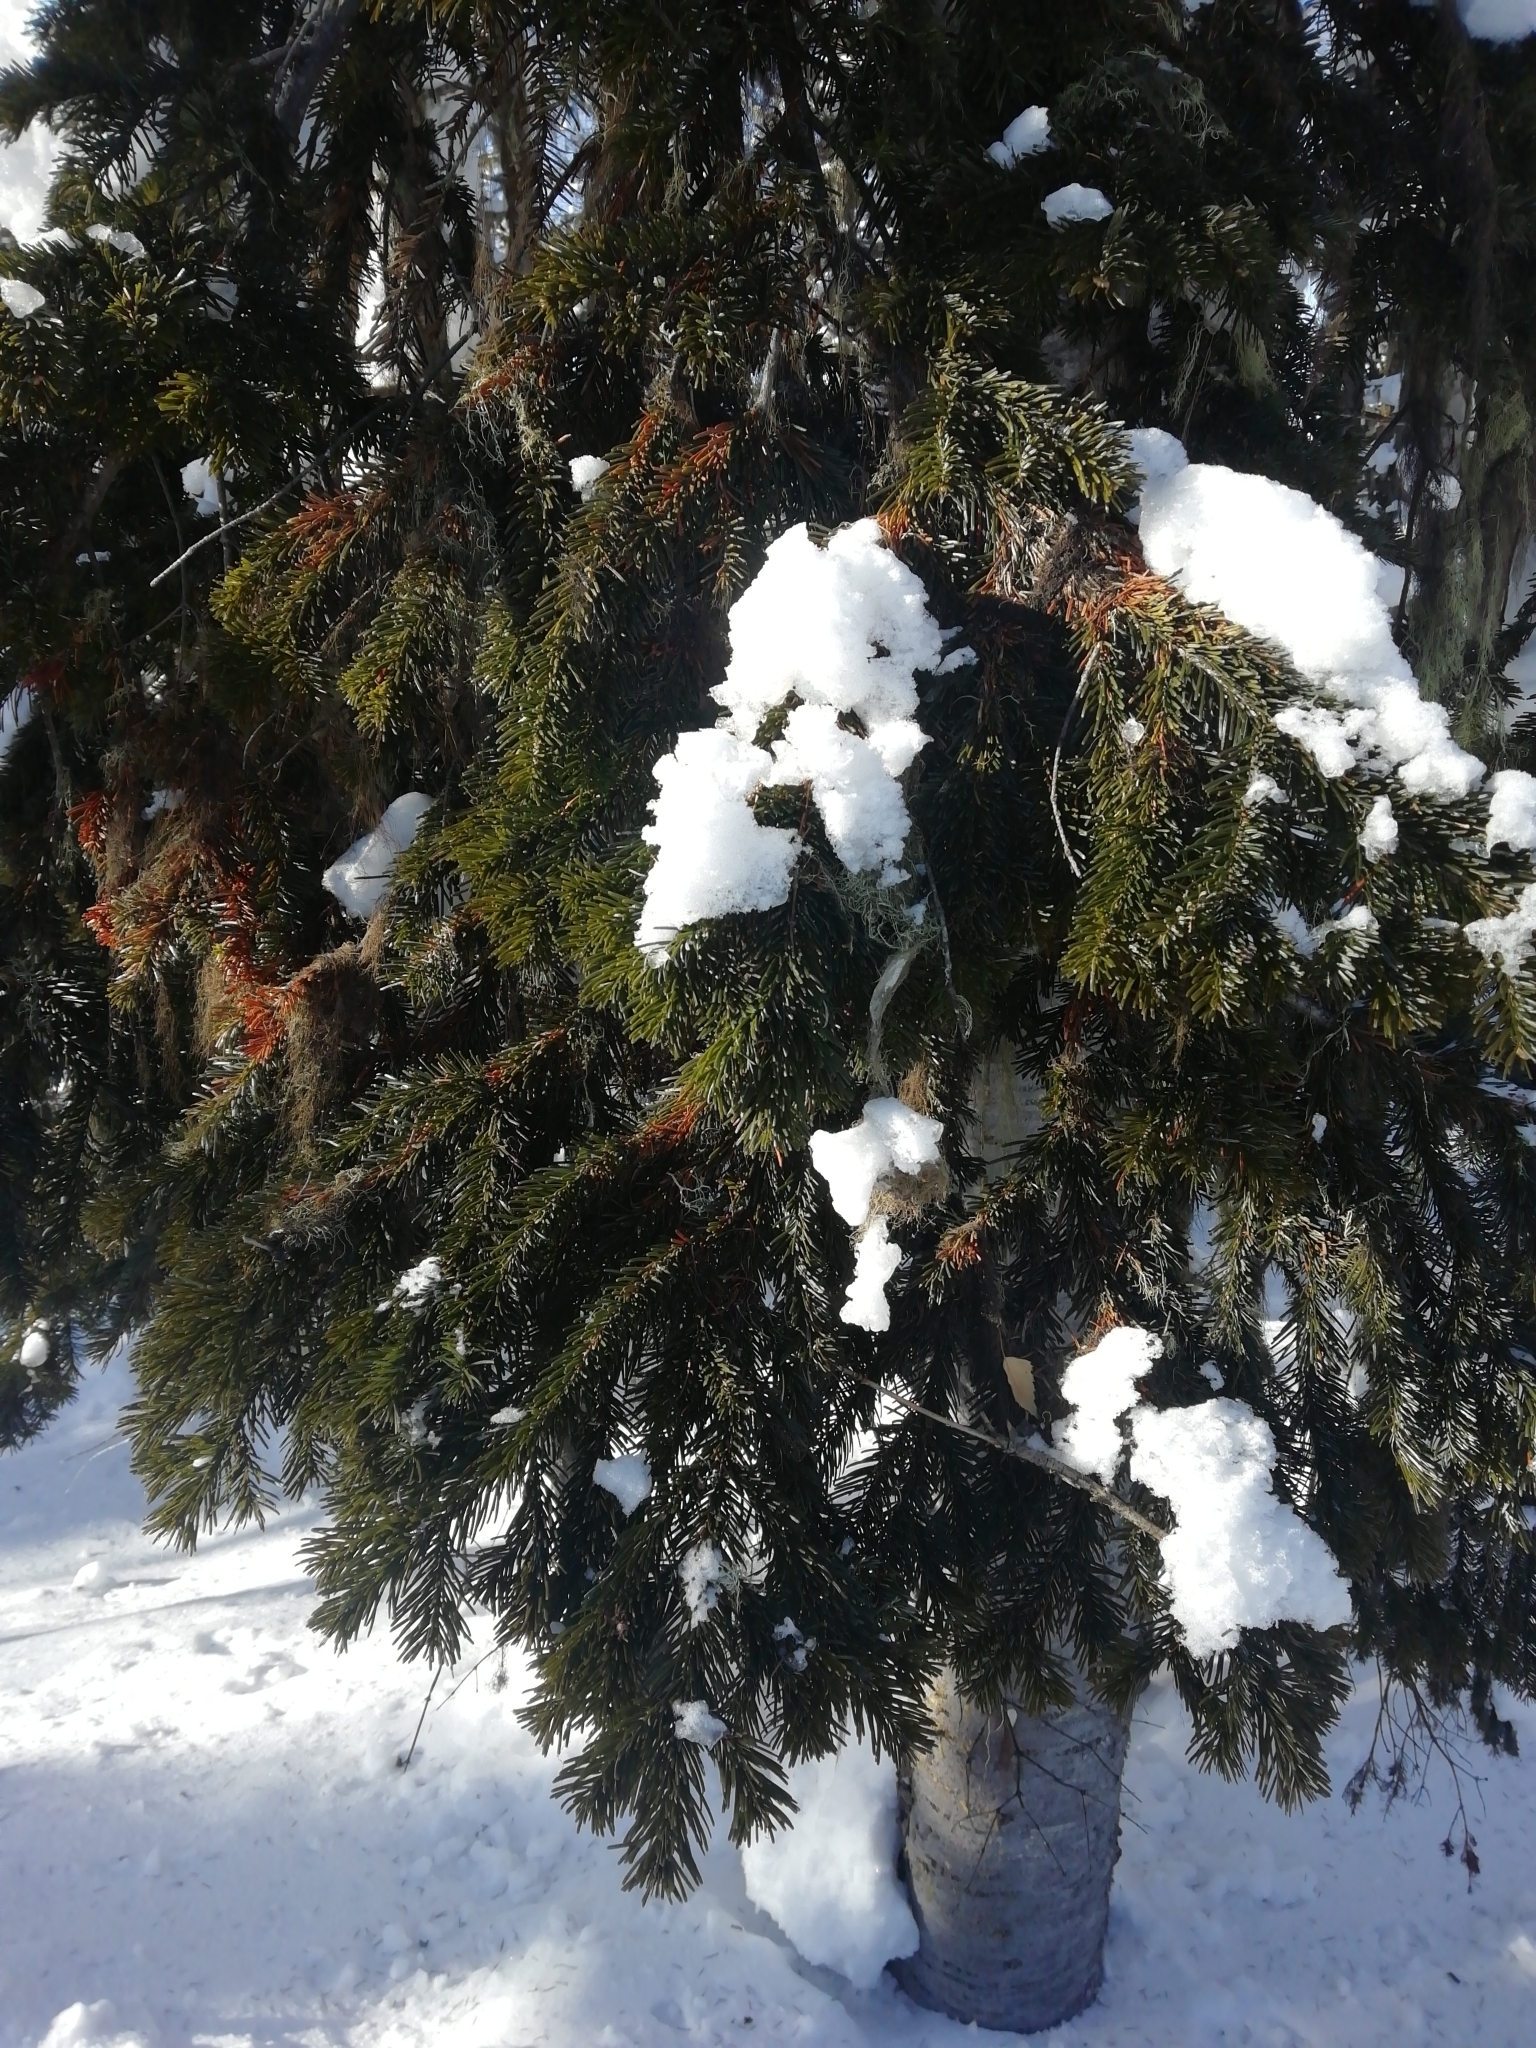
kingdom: Plantae
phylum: Tracheophyta
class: Pinopsida
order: Pinales
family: Pinaceae
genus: Abies
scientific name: Abies sibirica
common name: Siberian fir
